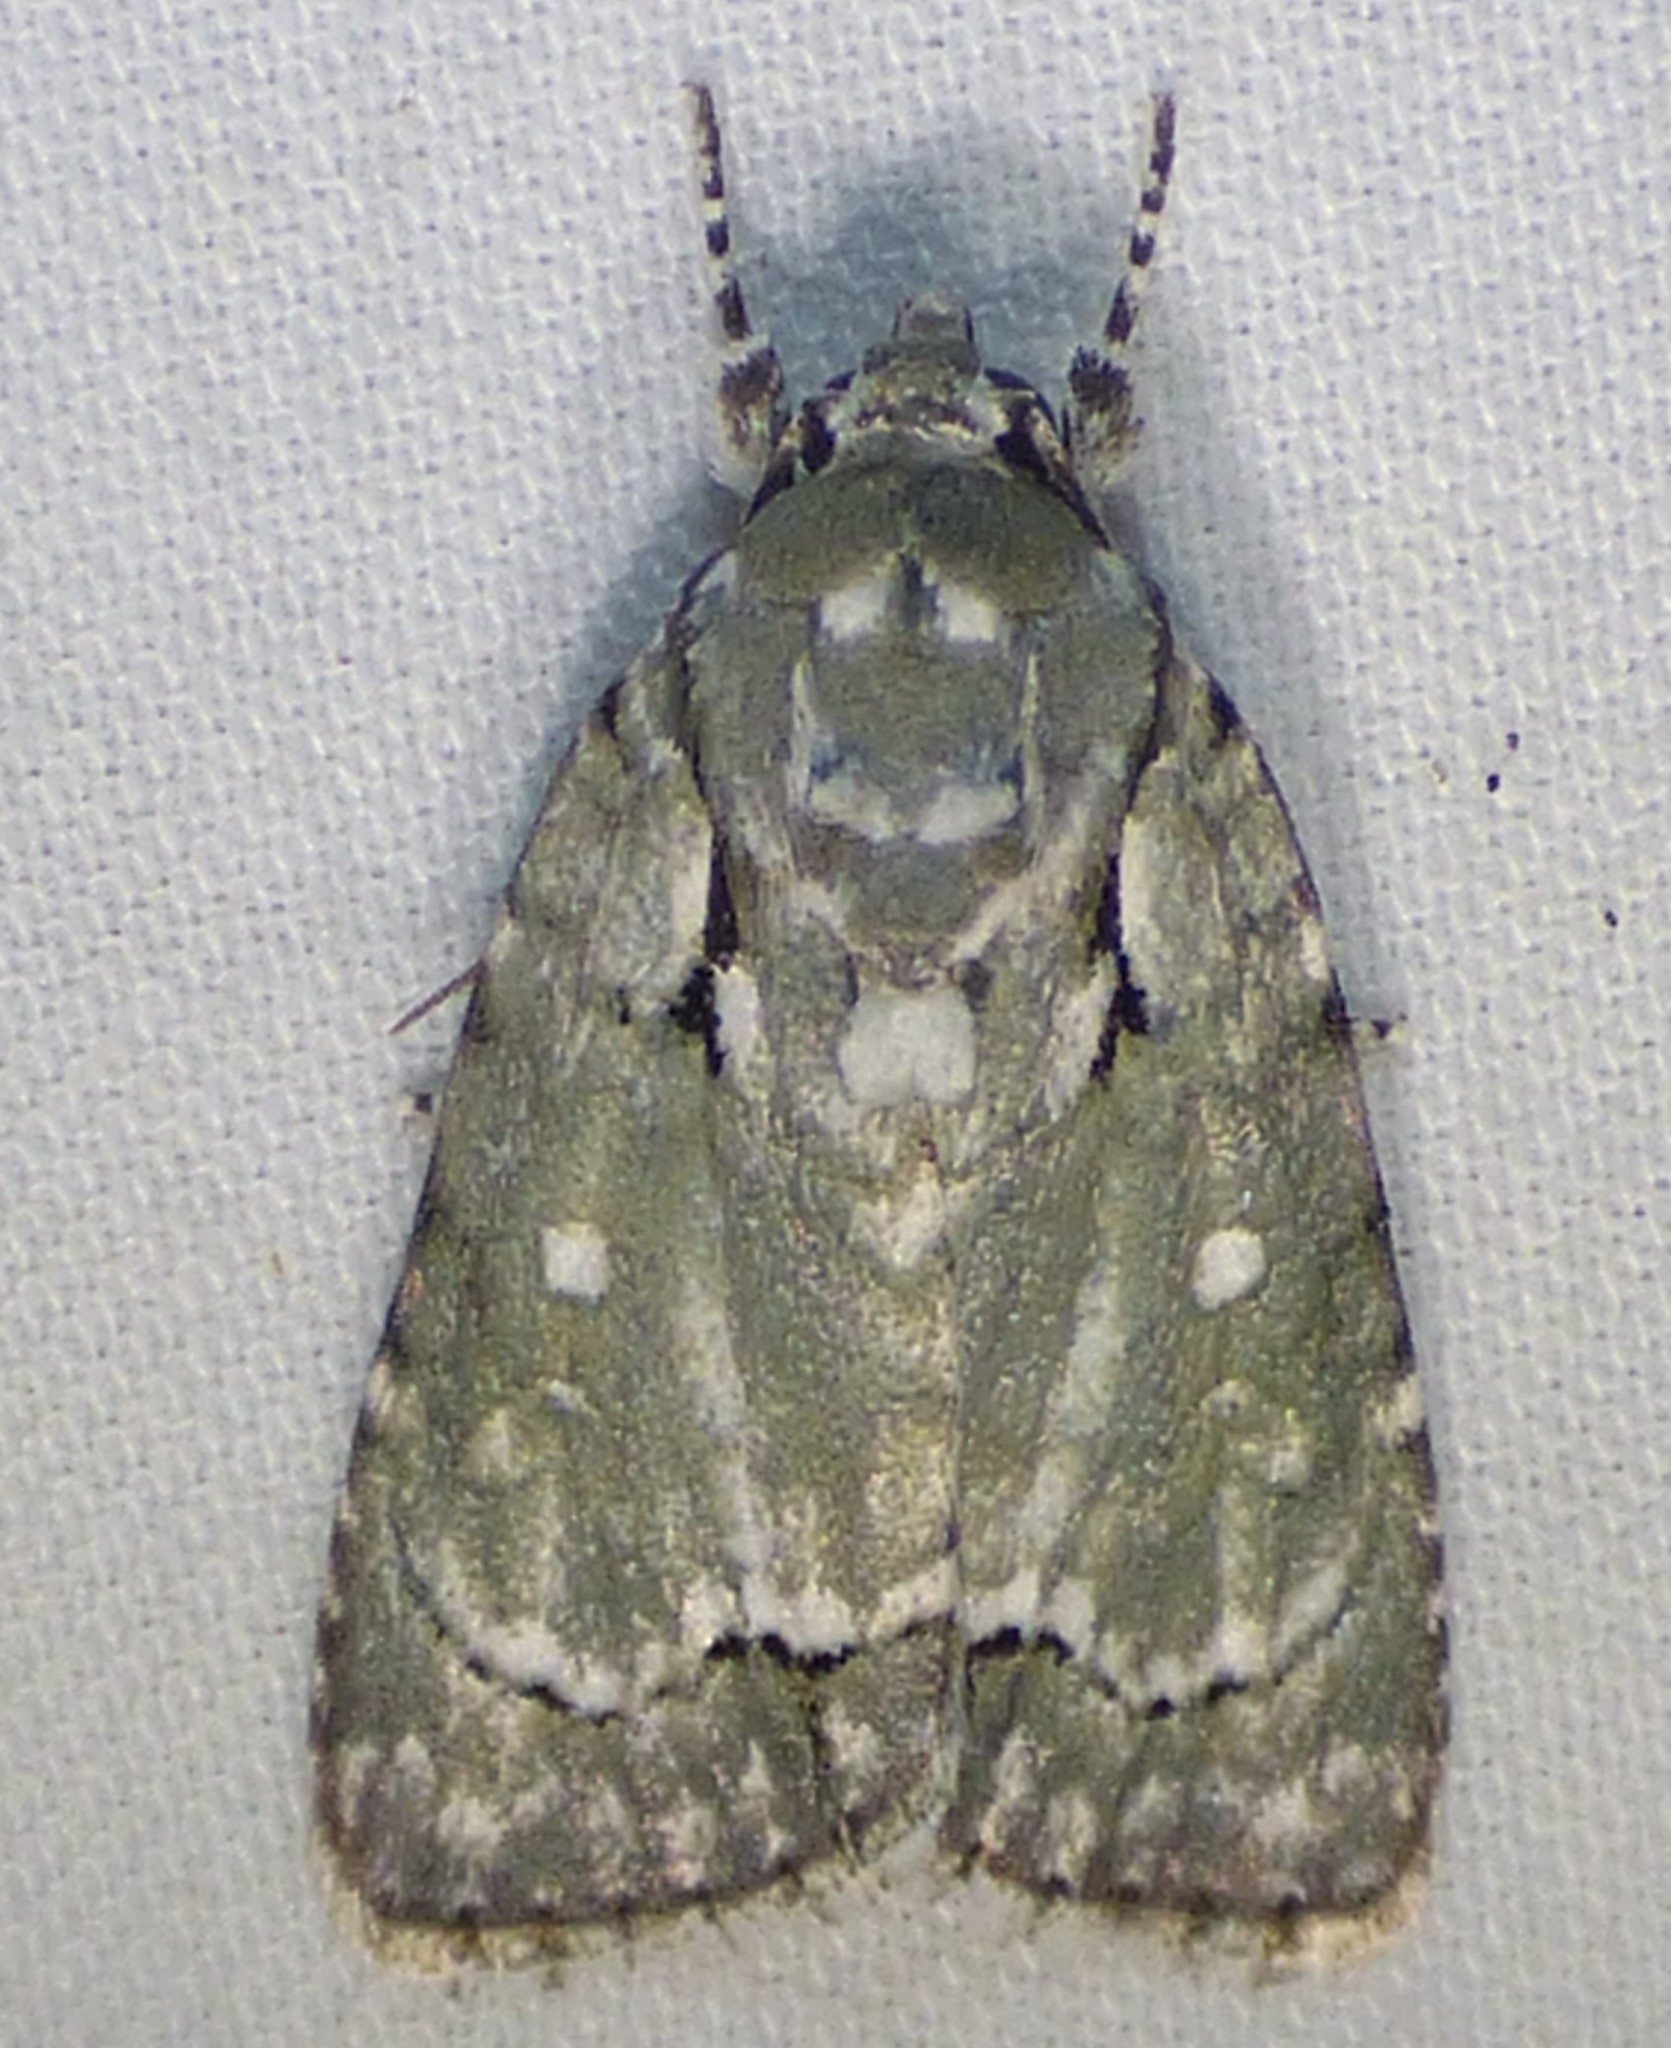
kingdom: Animalia
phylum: Arthropoda
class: Insecta
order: Lepidoptera
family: Noctuidae
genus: Acronicta
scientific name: Acronicta vinnula
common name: Delightful dagger
